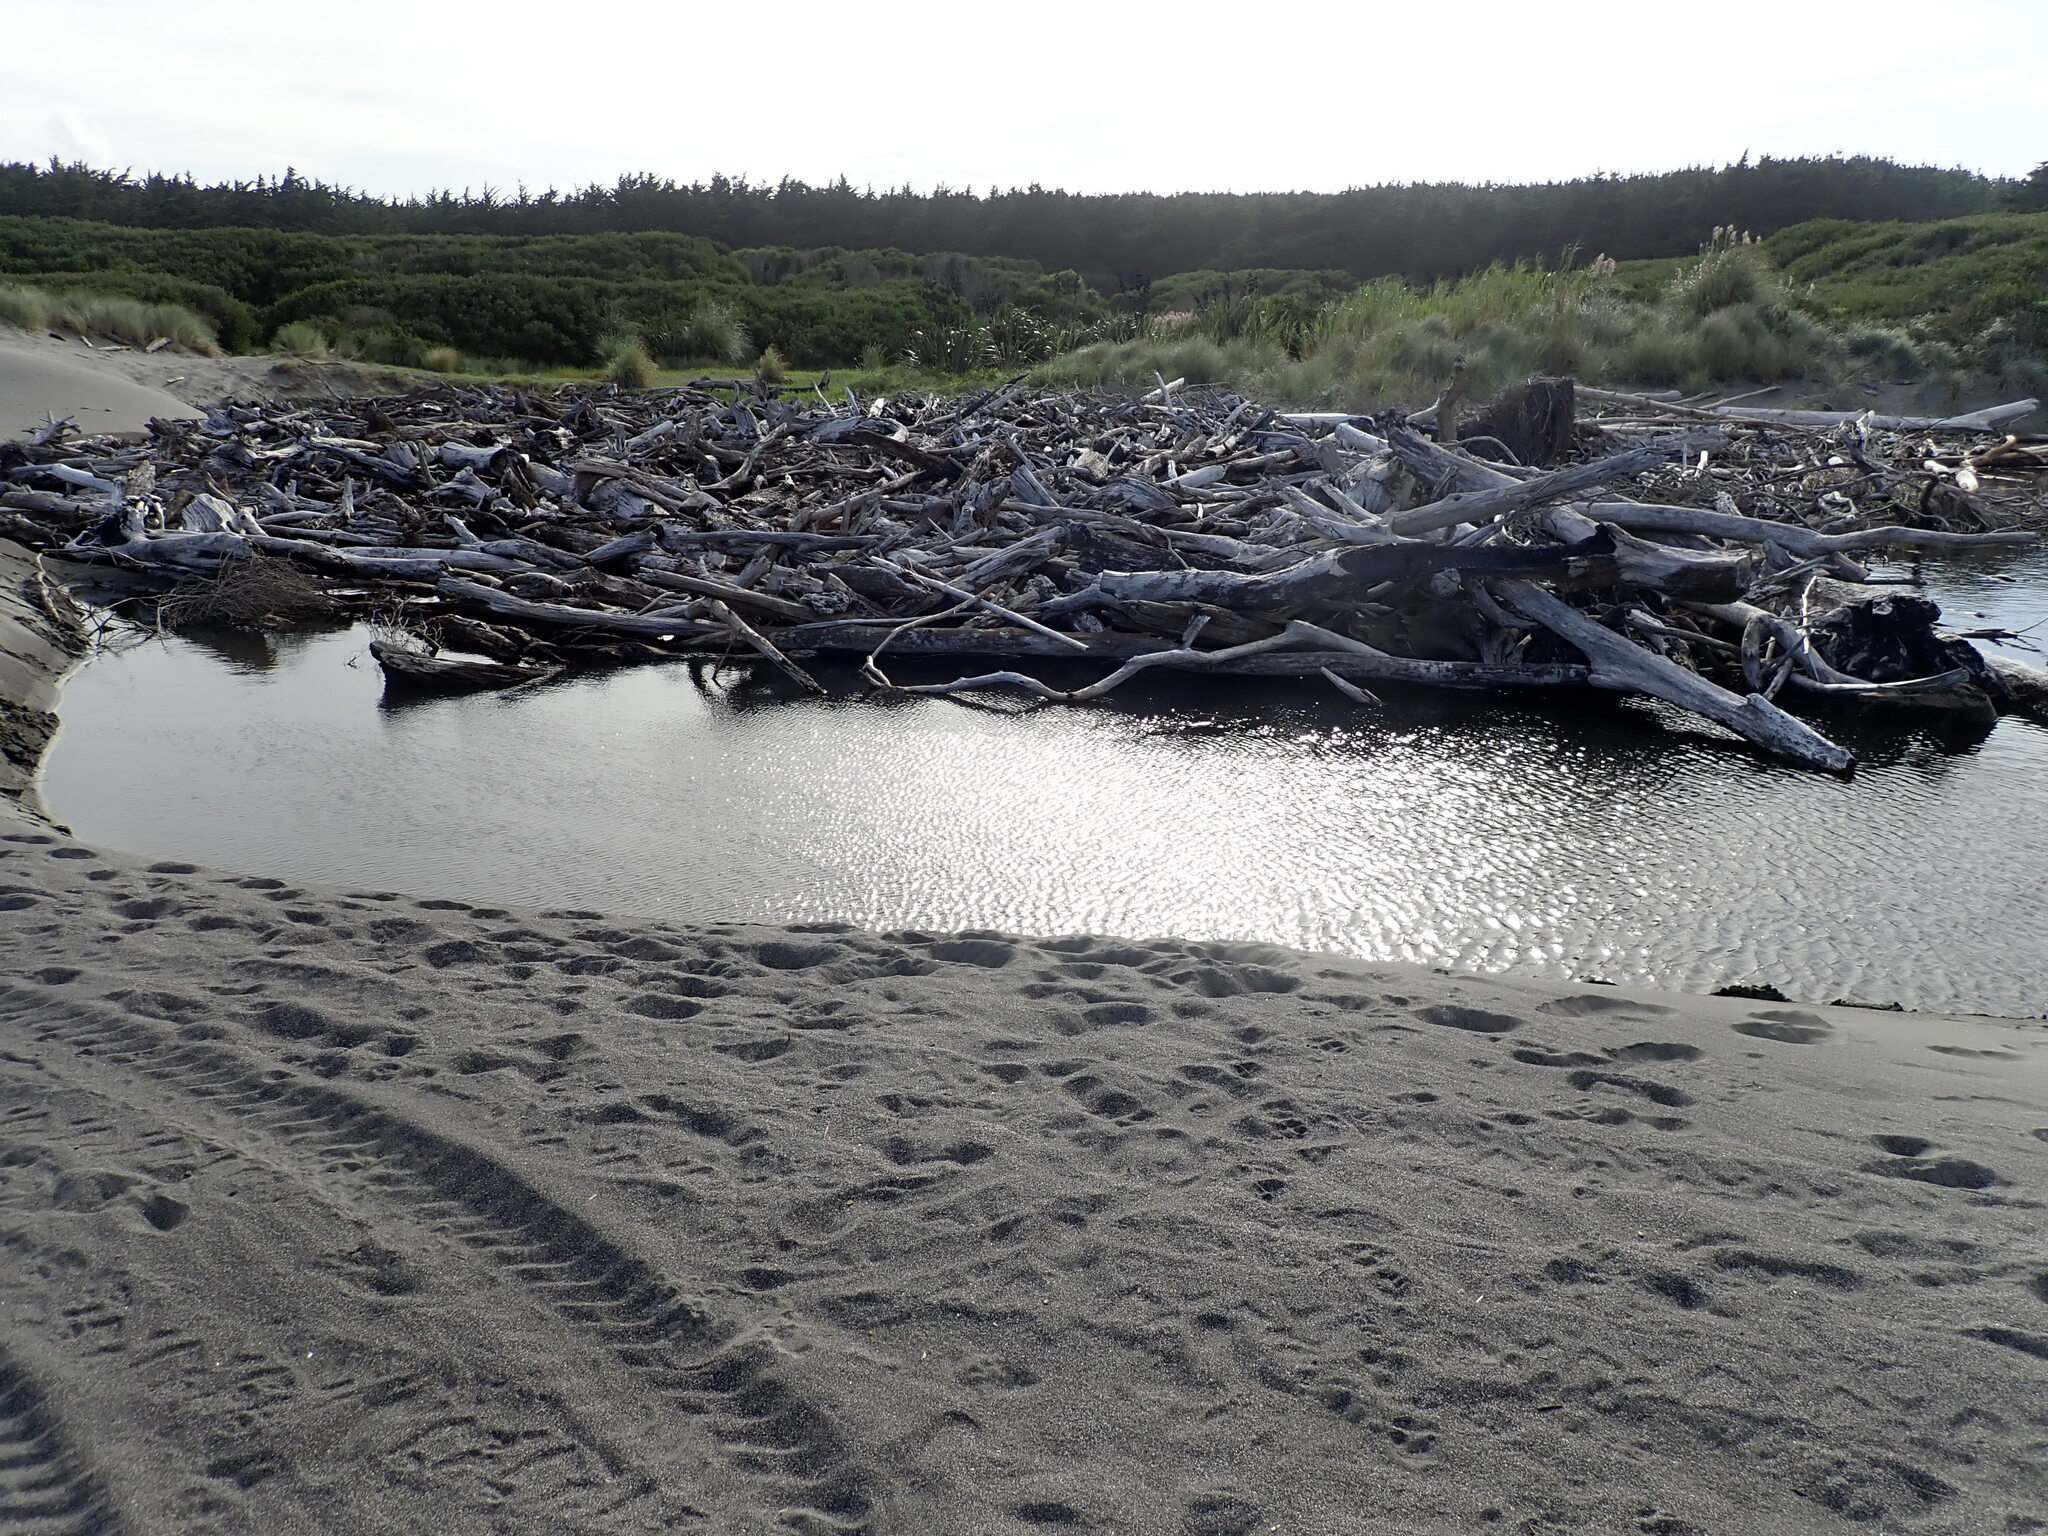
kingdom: Plantae
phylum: Tracheophyta
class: Liliopsida
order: Poales
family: Cyperaceae
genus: Cyperus
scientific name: Cyperus eragrostis
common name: Tall flatsedge
